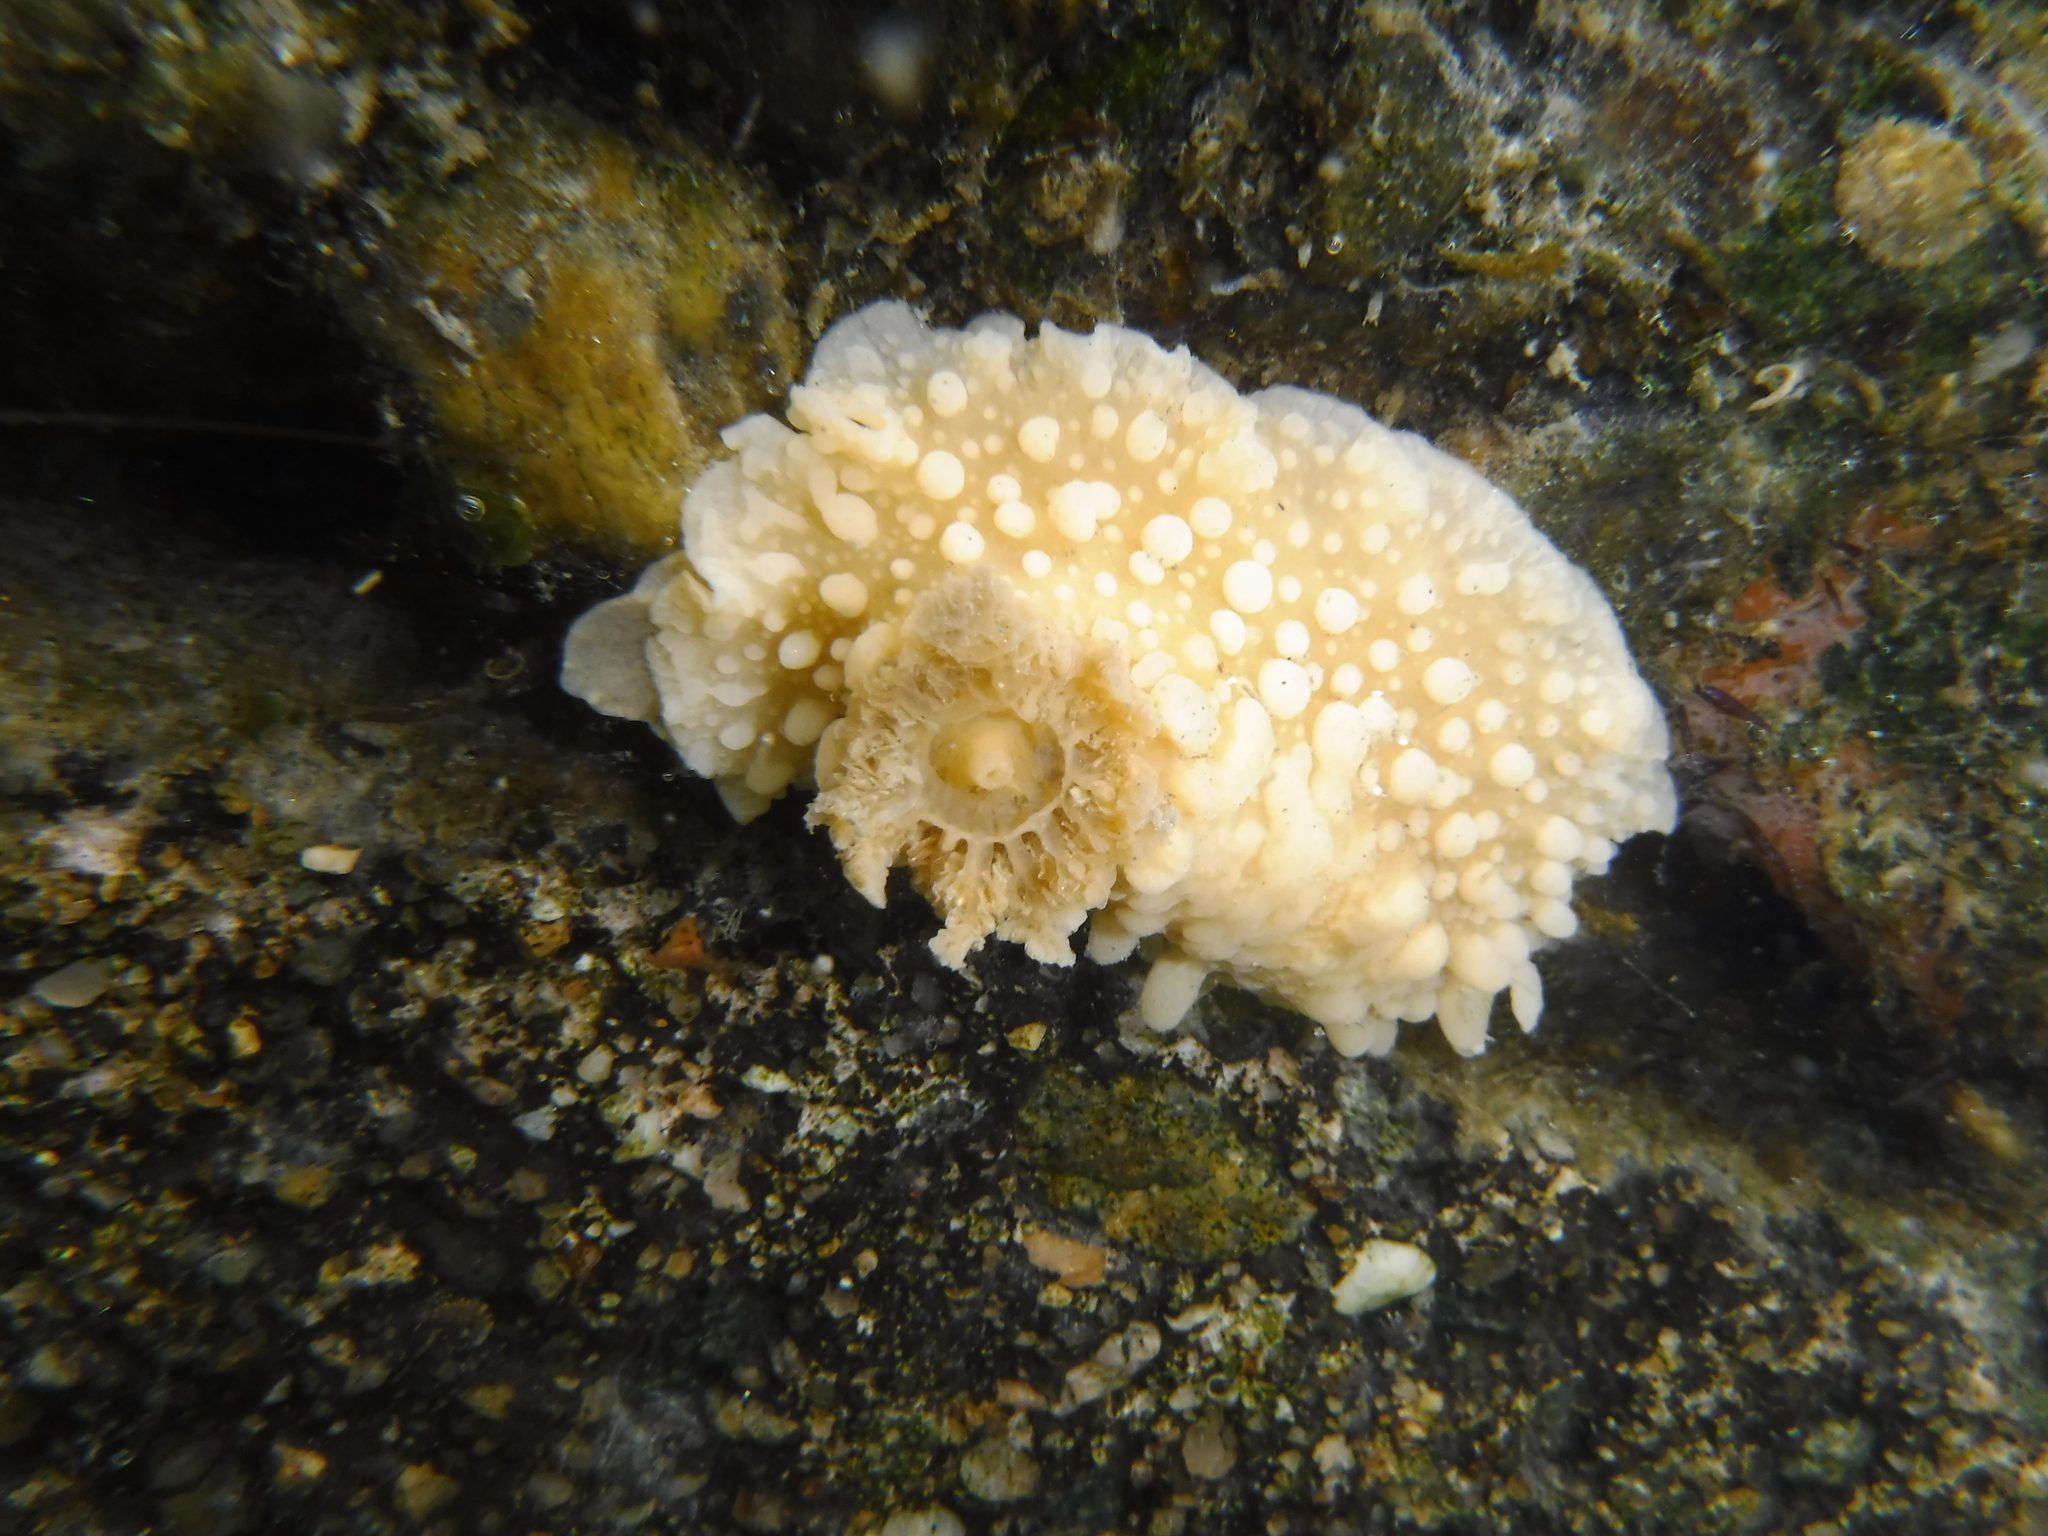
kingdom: Animalia
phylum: Mollusca
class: Gastropoda
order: Nudibranchia
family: Dorididae
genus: Doris
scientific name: Doris verrucosa
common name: Sponge seaslug
